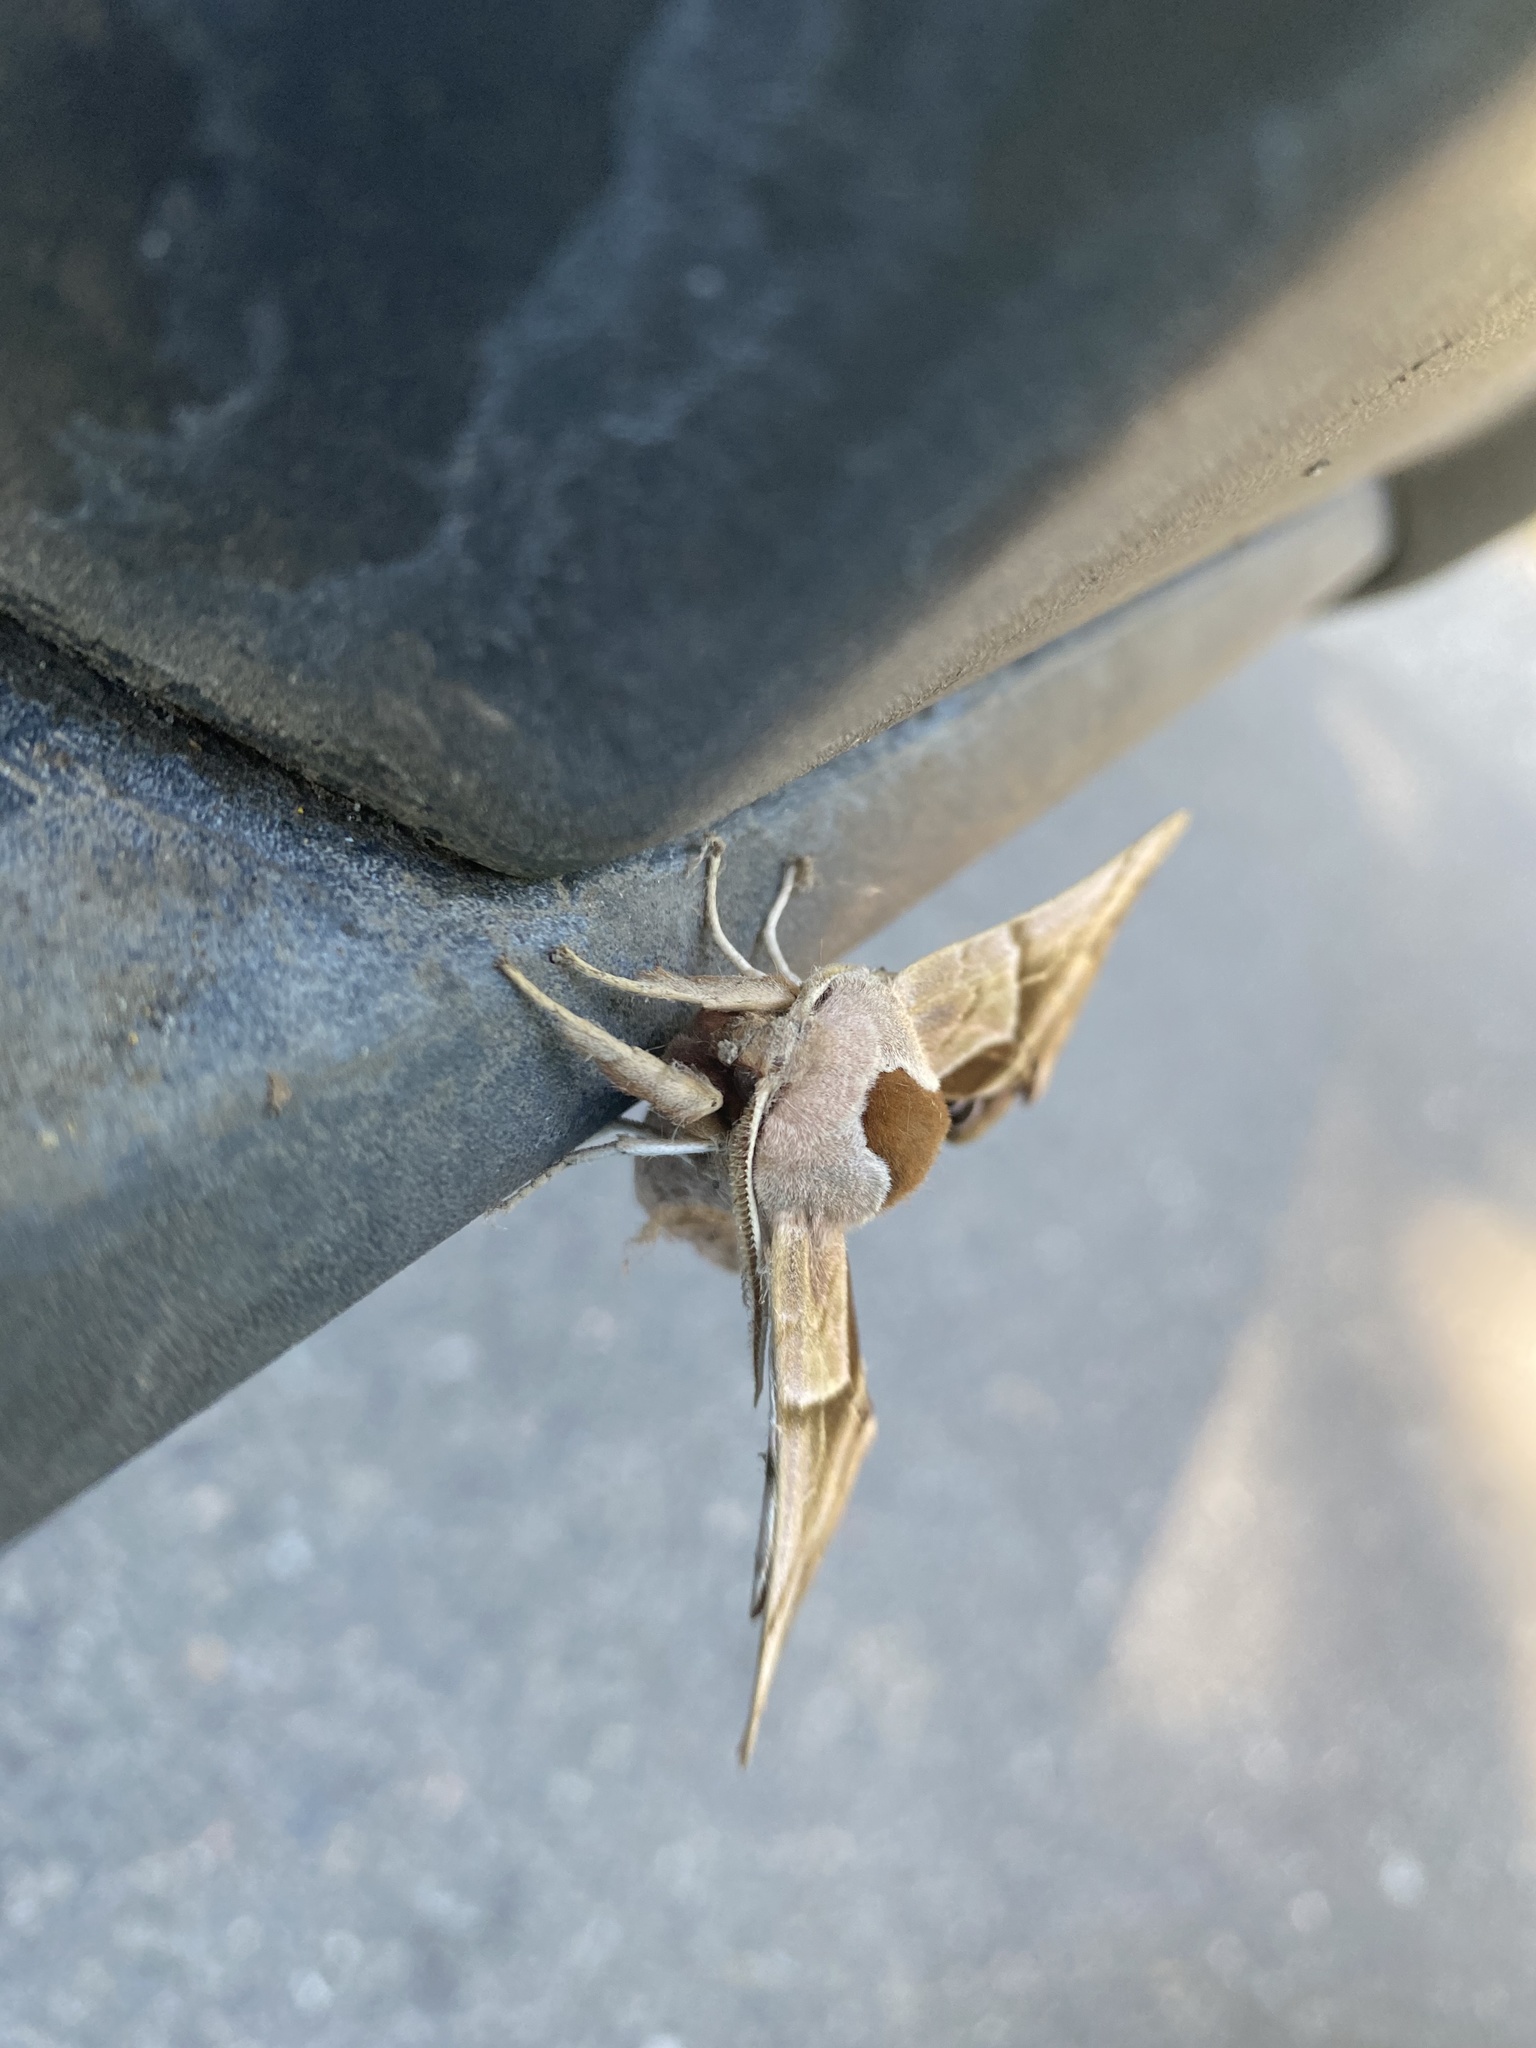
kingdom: Animalia
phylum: Arthropoda
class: Insecta
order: Lepidoptera
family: Sphingidae
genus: Smerinthus
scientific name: Smerinthus cerisyi
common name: Cerisy's sphinx moth
